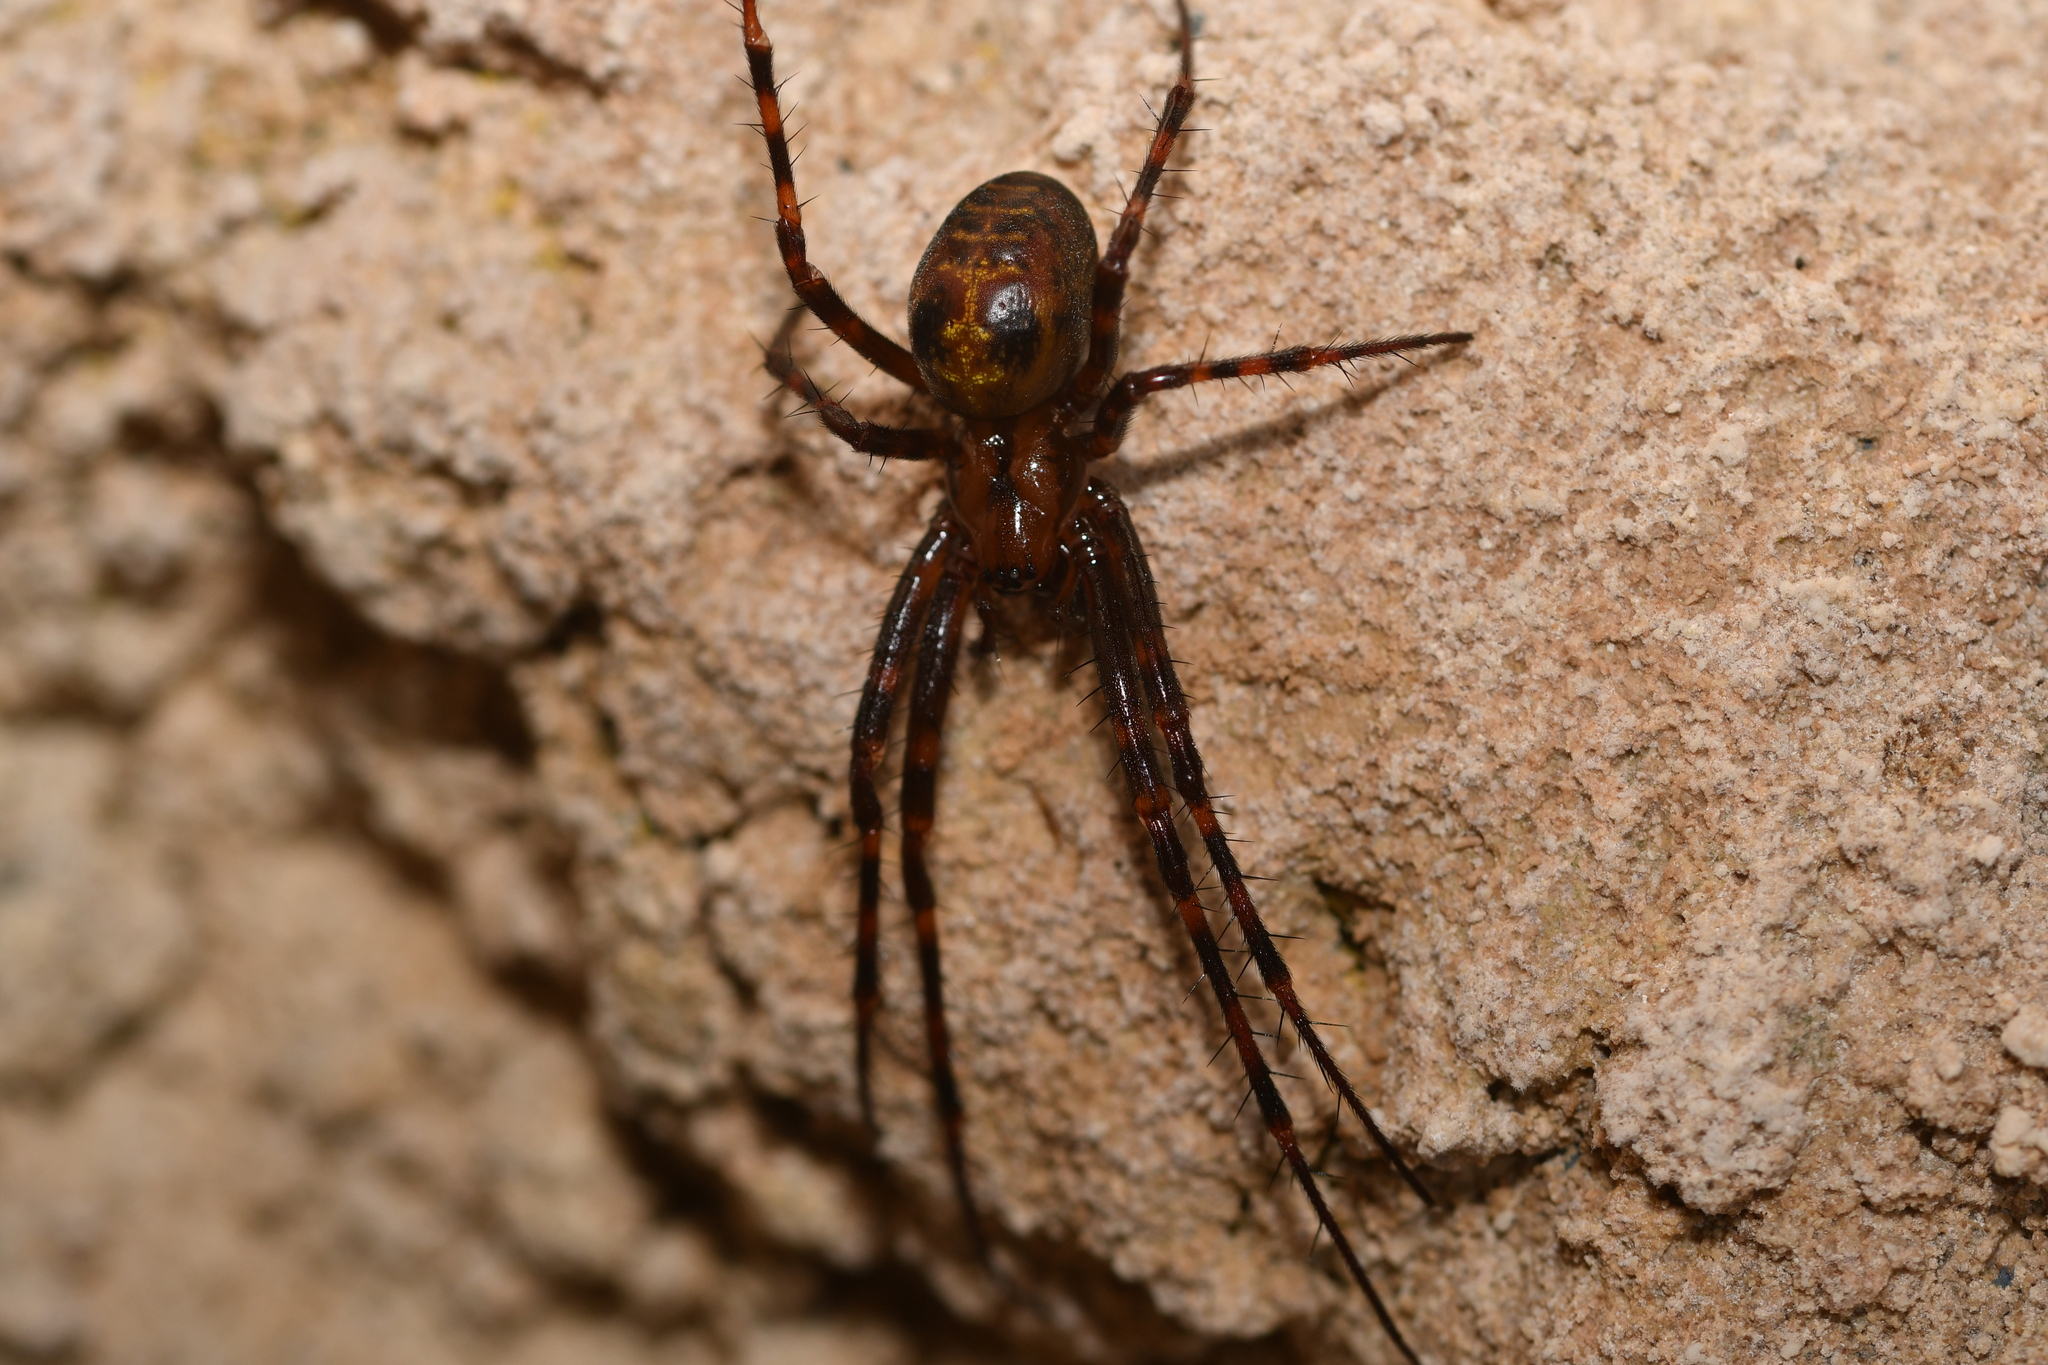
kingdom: Animalia
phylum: Arthropoda
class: Arachnida
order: Araneae
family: Tetragnathidae
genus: Meta
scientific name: Meta menardi
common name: Cave spider
